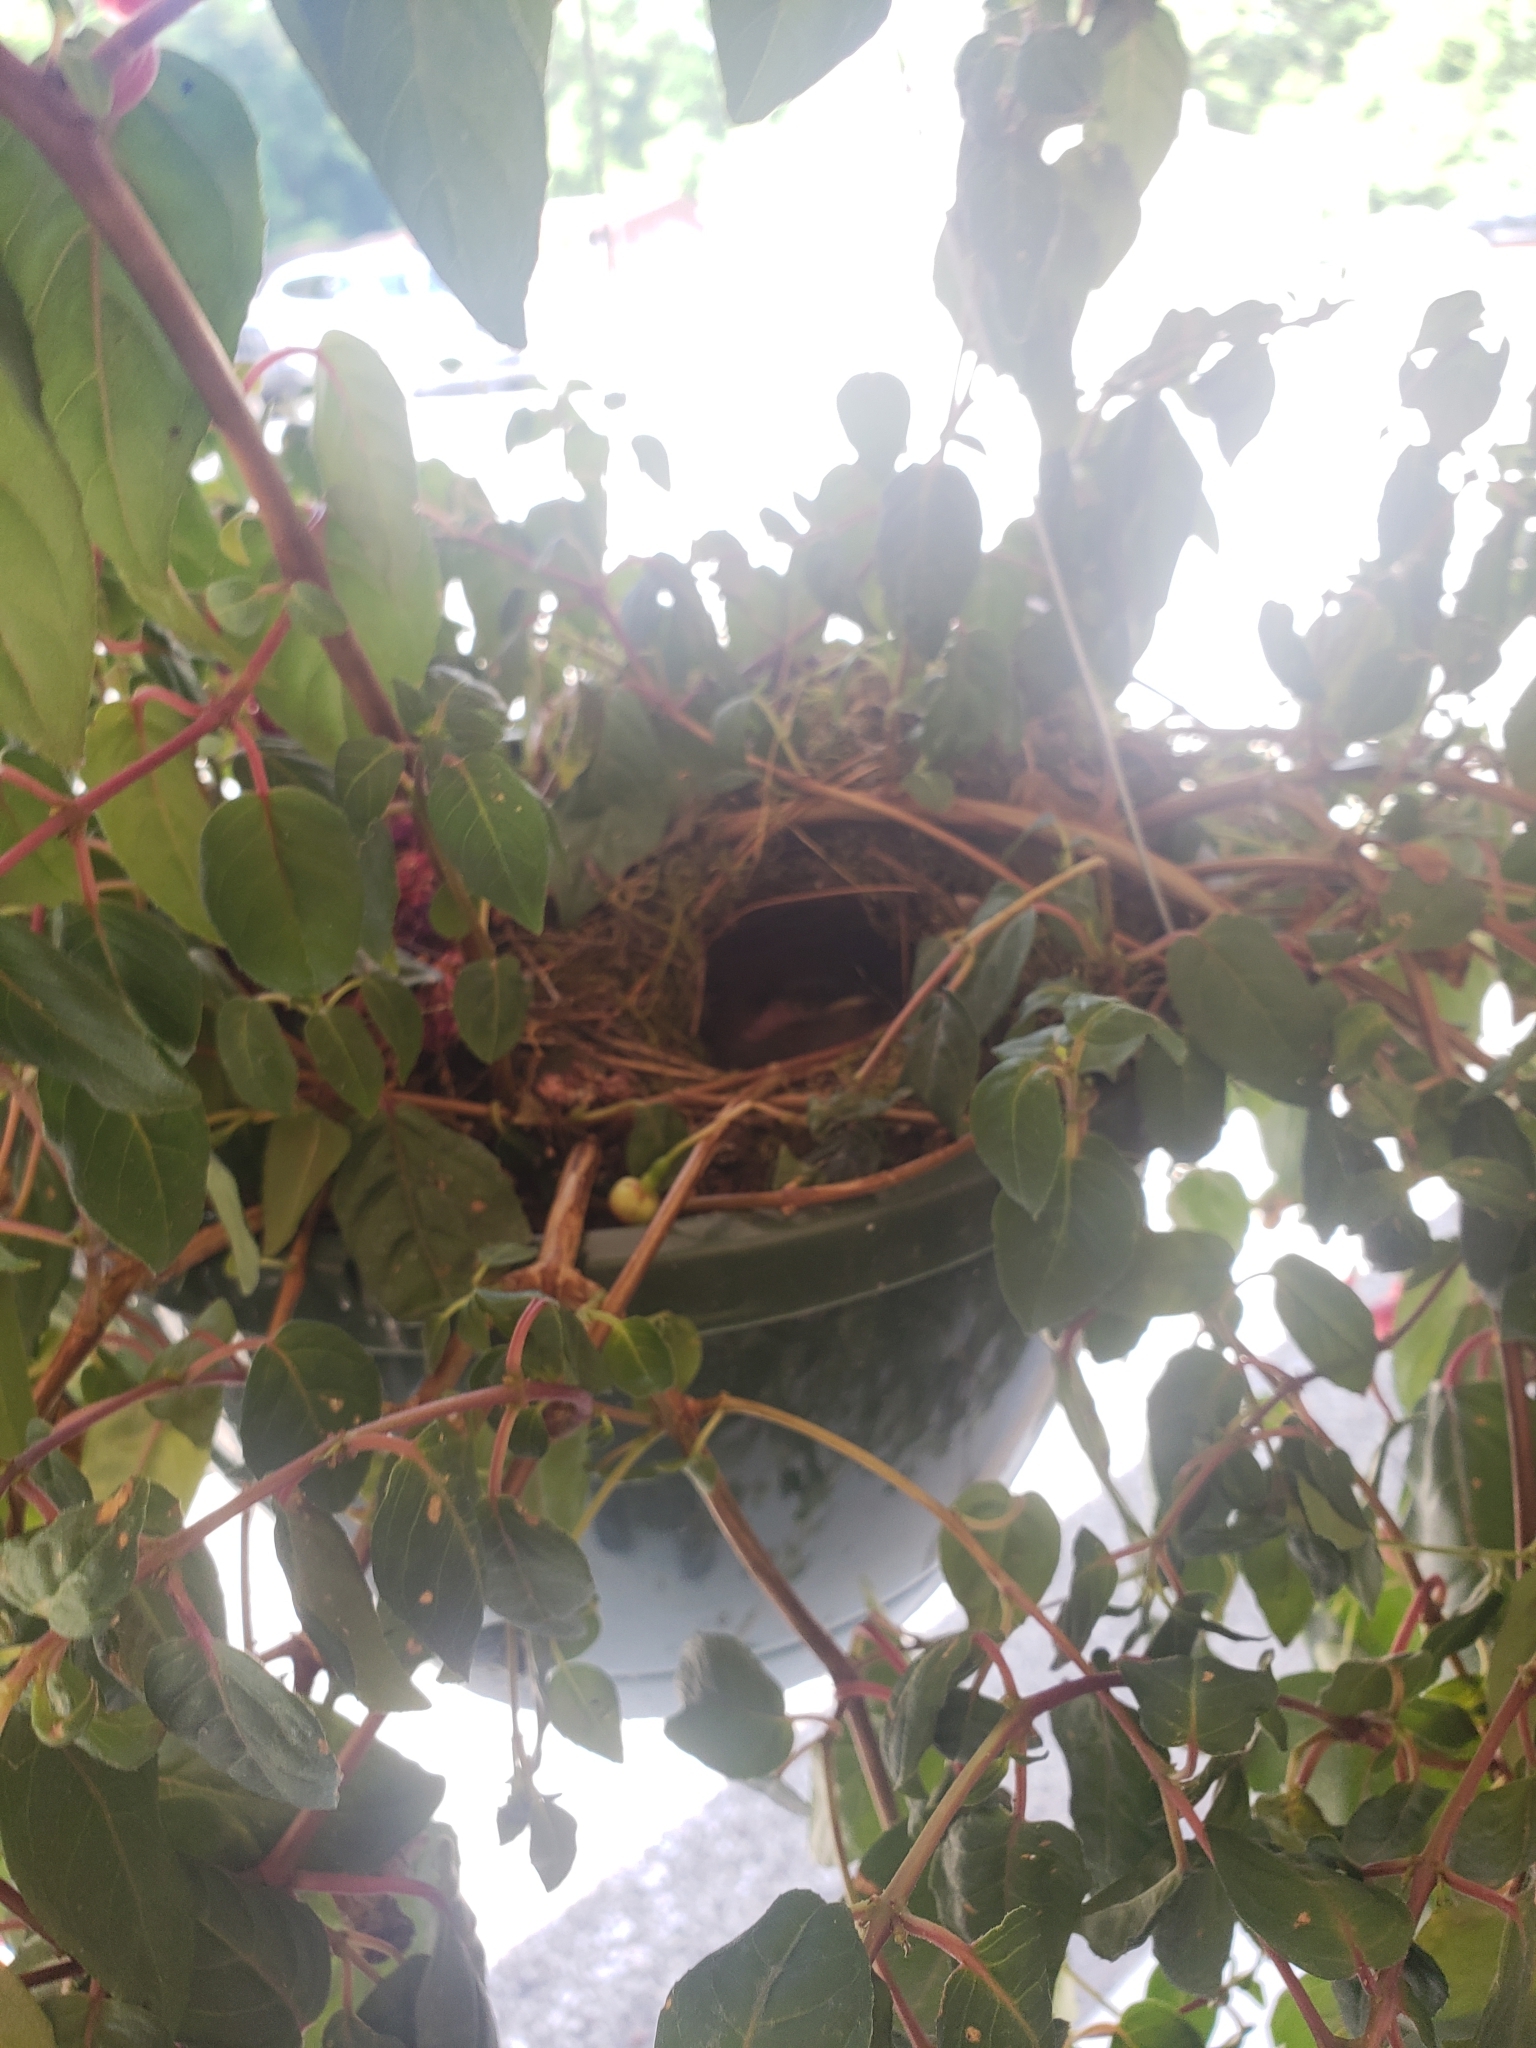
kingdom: Animalia
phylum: Chordata
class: Aves
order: Passeriformes
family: Troglodytidae
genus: Thryothorus
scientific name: Thryothorus ludovicianus
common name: Carolina wren
